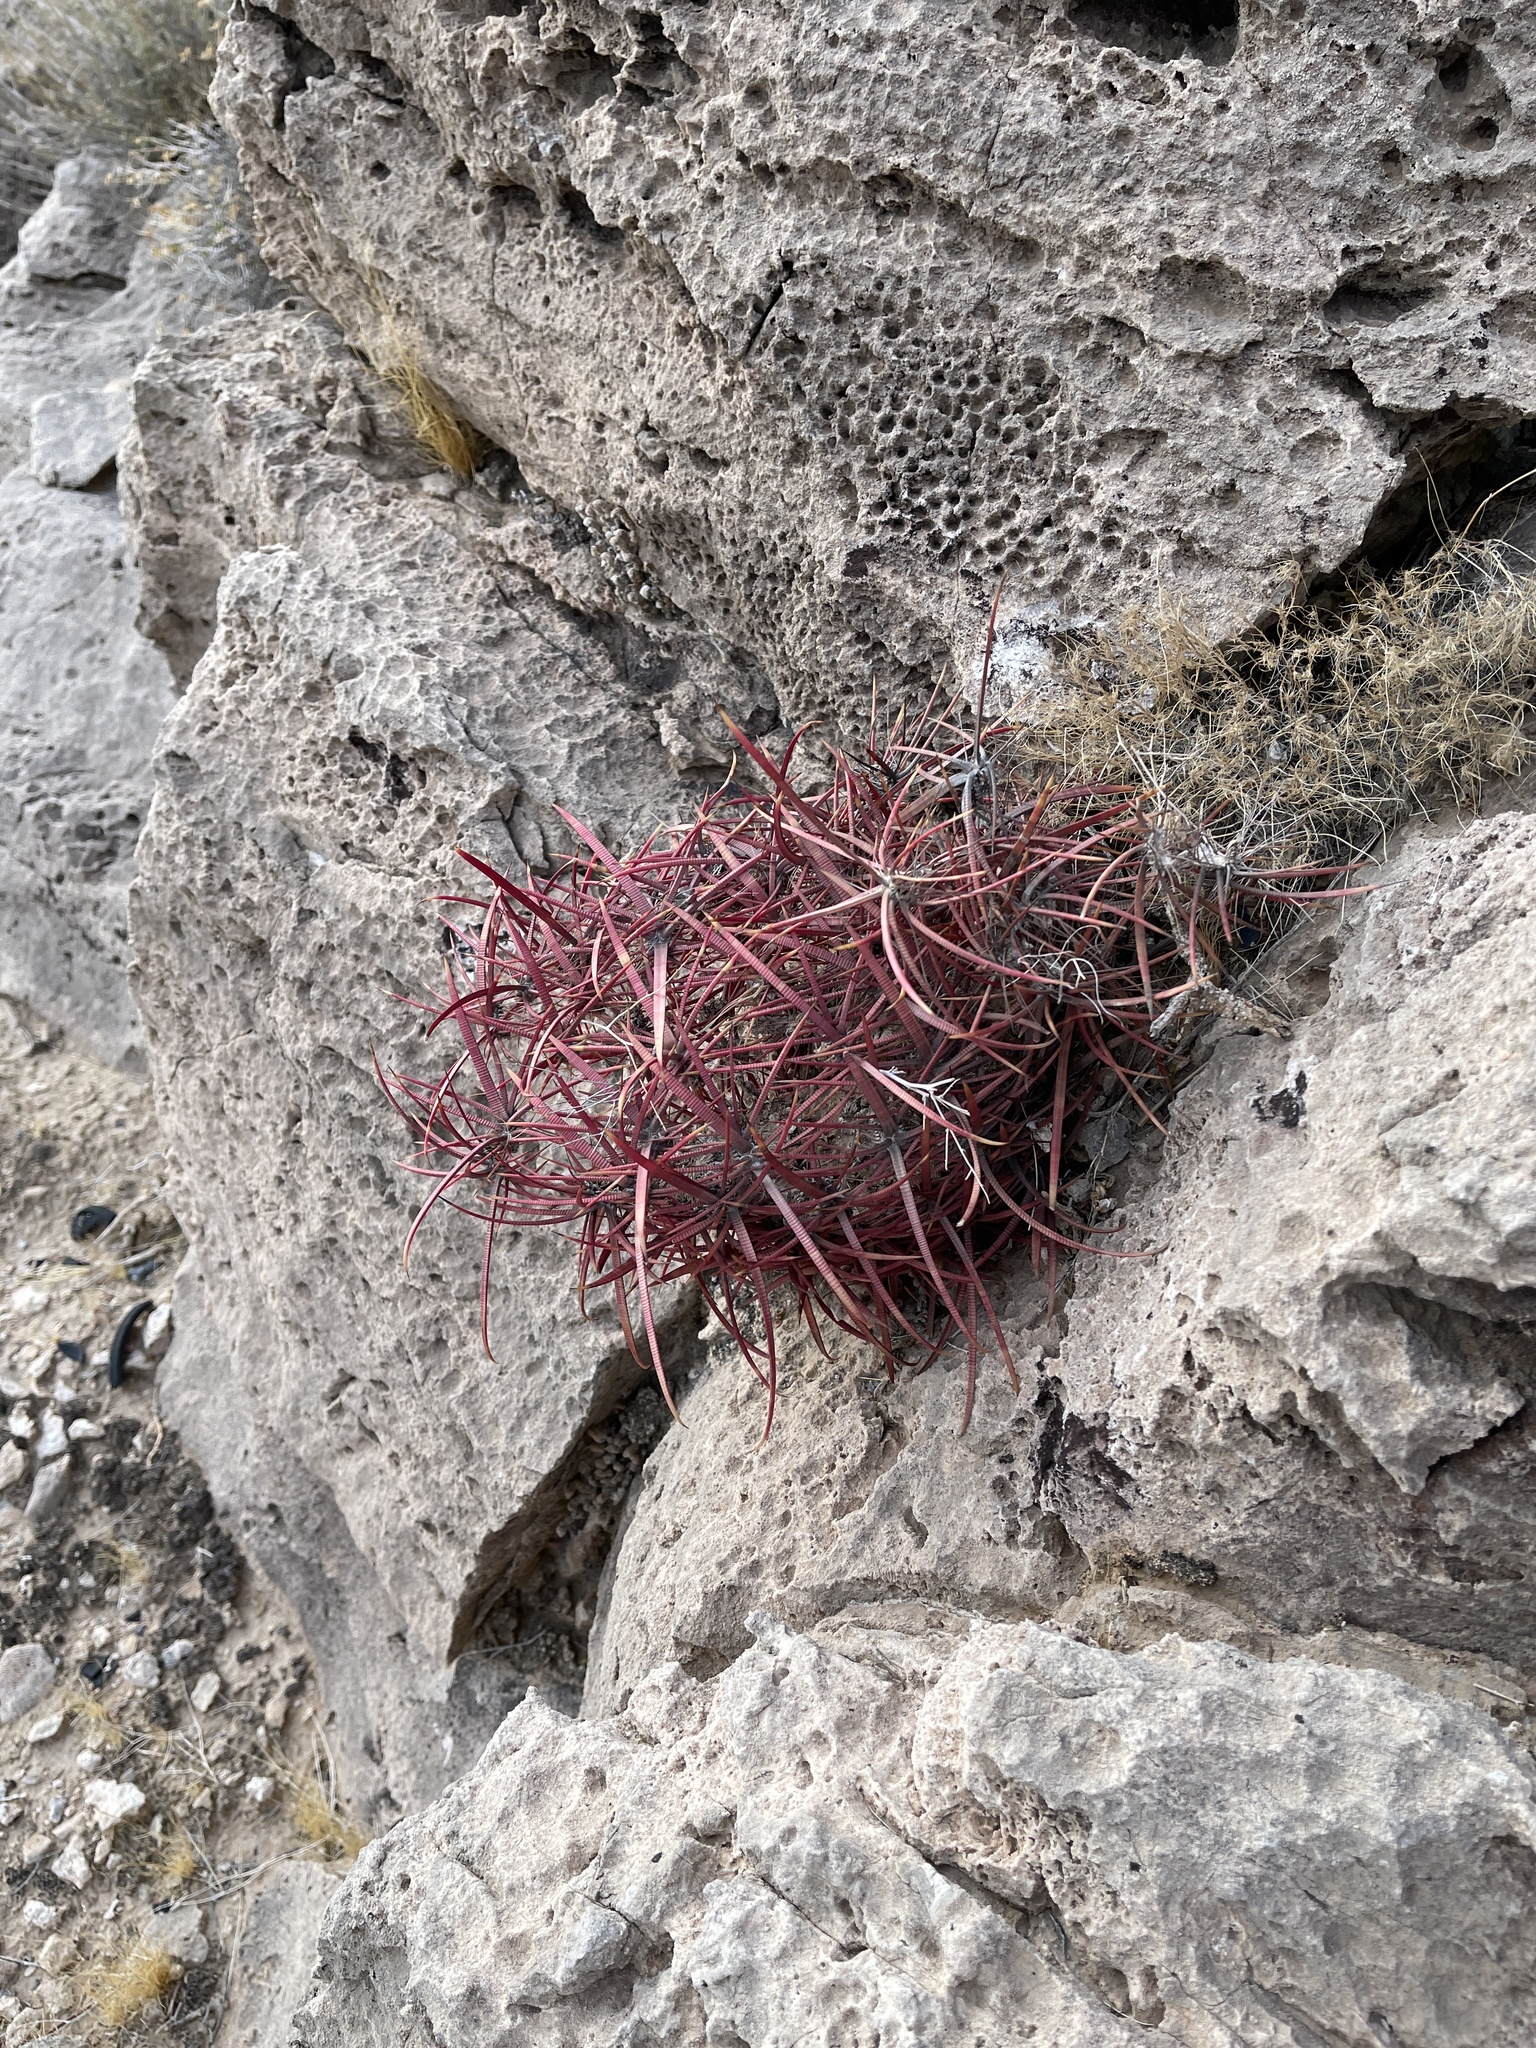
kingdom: Plantae
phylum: Tracheophyta
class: Magnoliopsida
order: Caryophyllales
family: Cactaceae
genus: Ferocactus
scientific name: Ferocactus cylindraceus
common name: California barrel cactus
